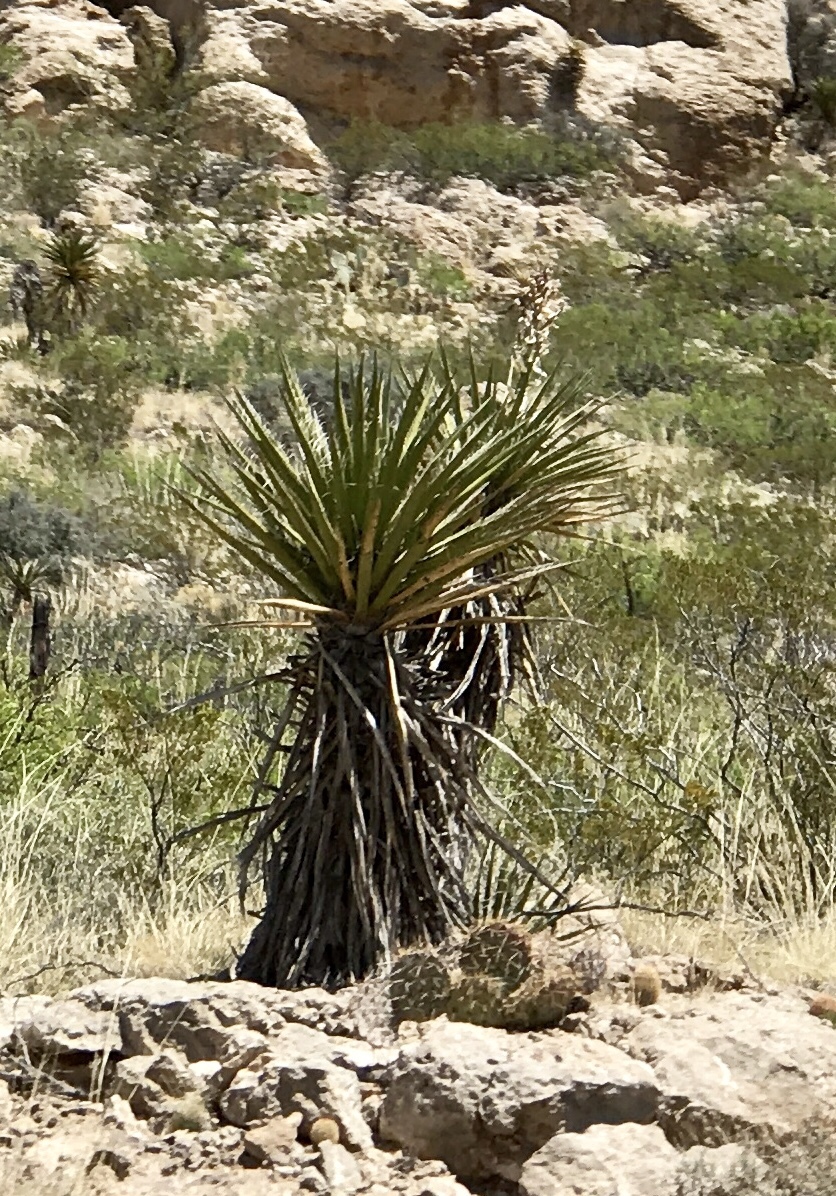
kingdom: Plantae
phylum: Tracheophyta
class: Liliopsida
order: Asparagales
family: Asparagaceae
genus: Yucca
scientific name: Yucca treculiana
